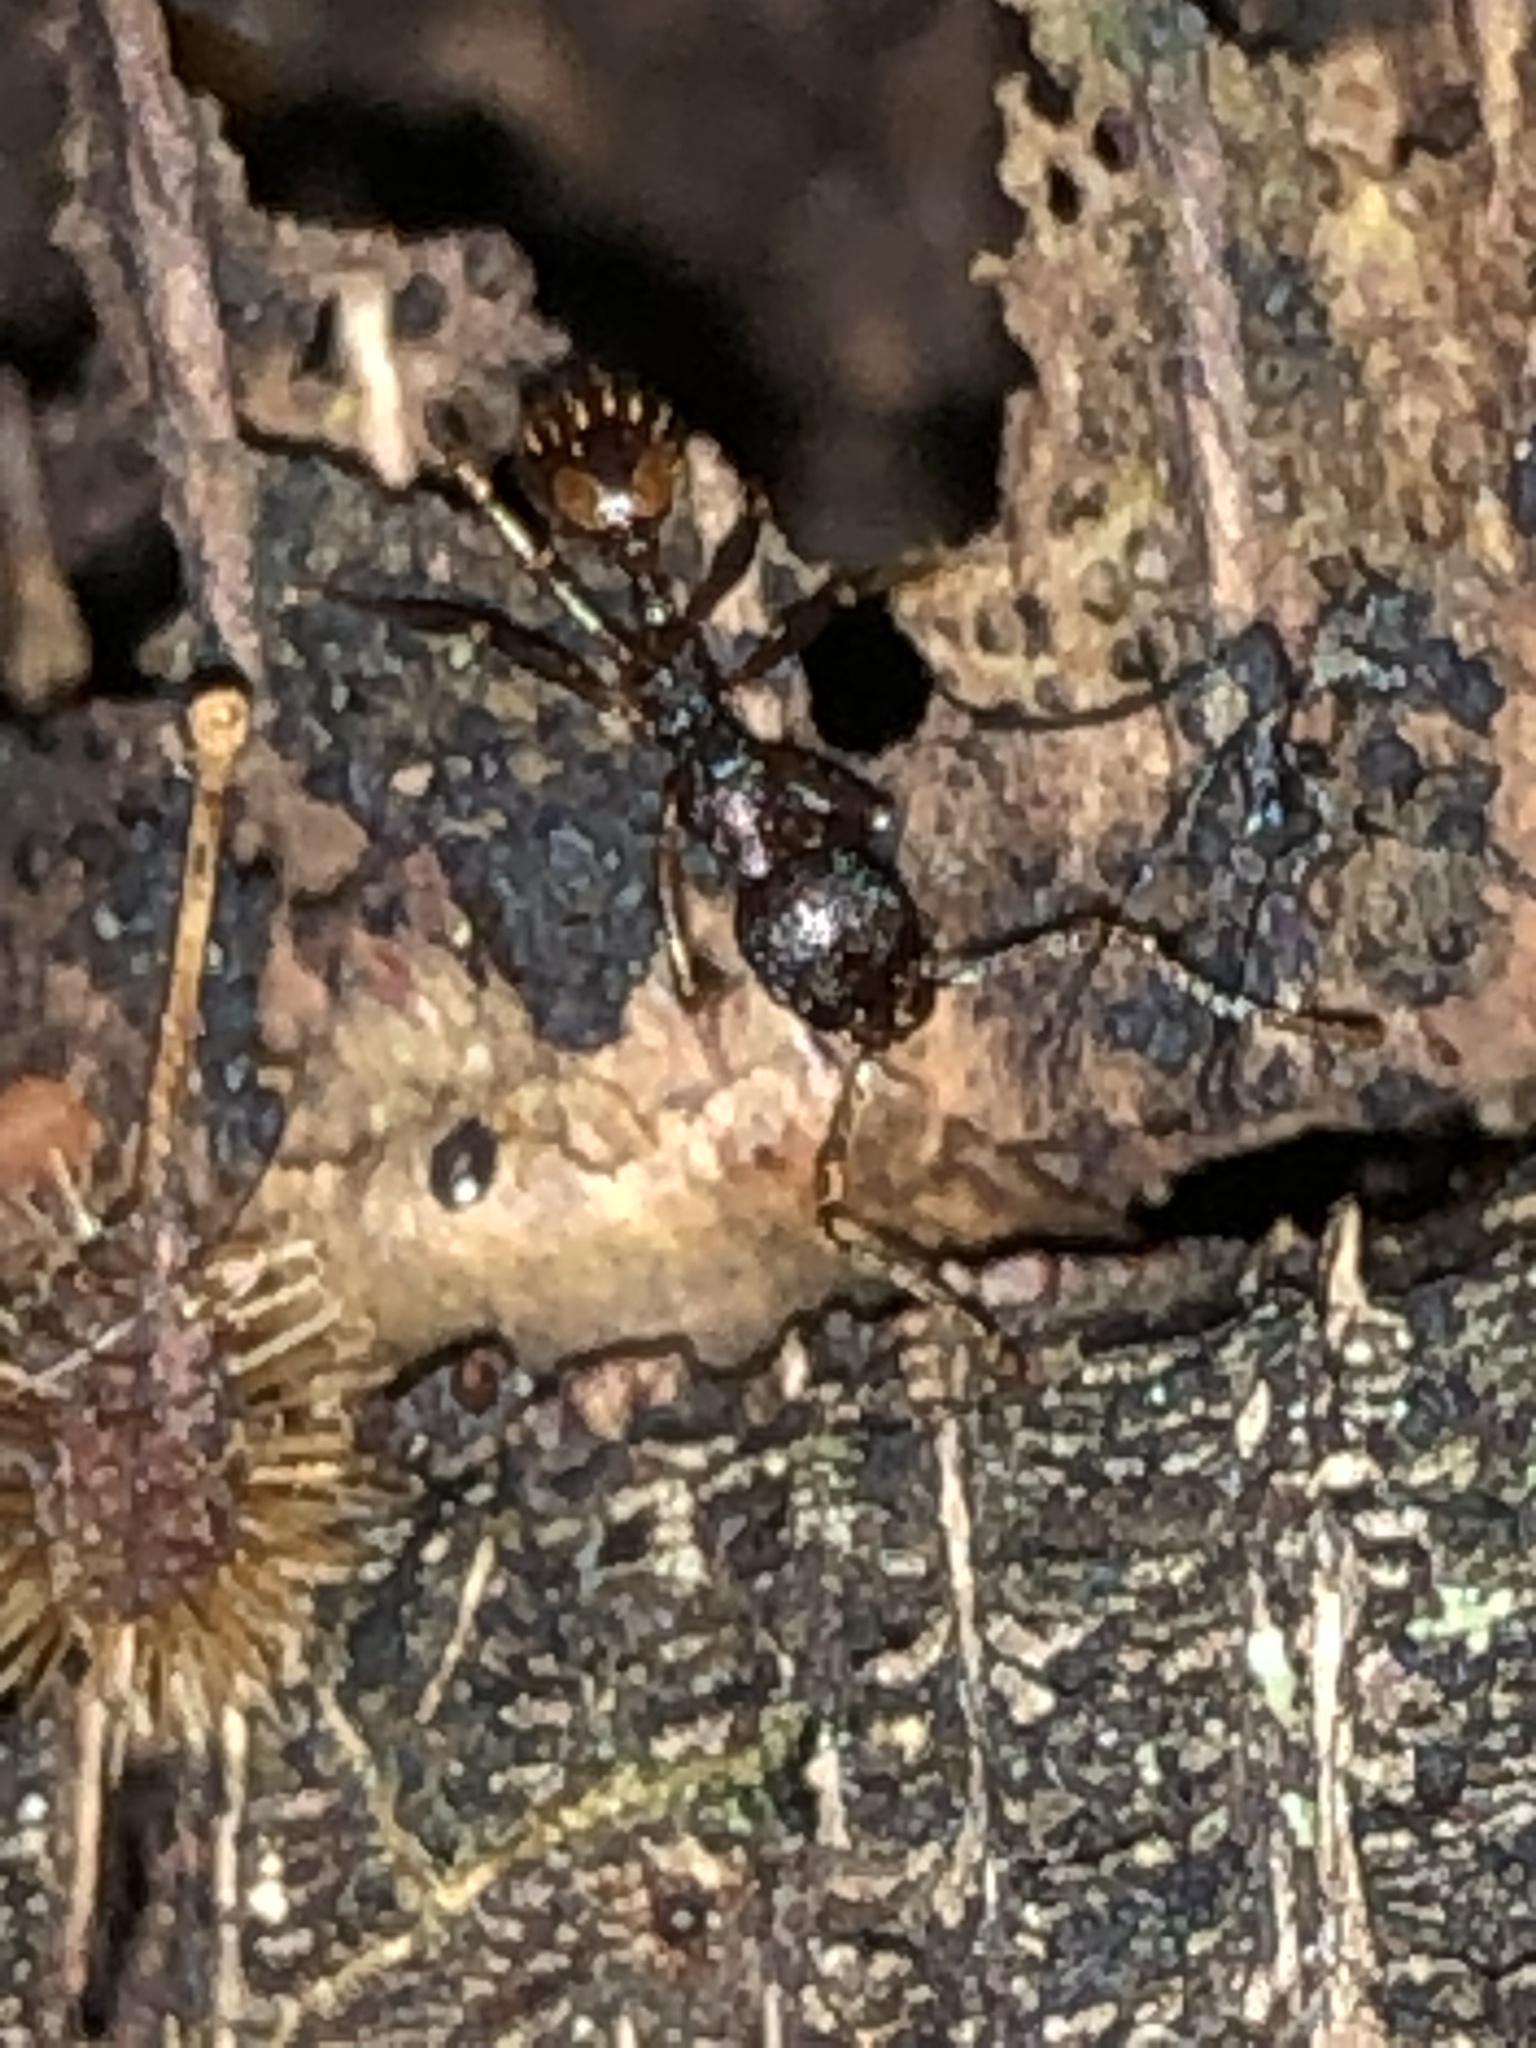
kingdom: Animalia
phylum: Arthropoda
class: Insecta
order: Hymenoptera
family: Formicidae
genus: Aphaenogaster
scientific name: Aphaenogaster fulva
